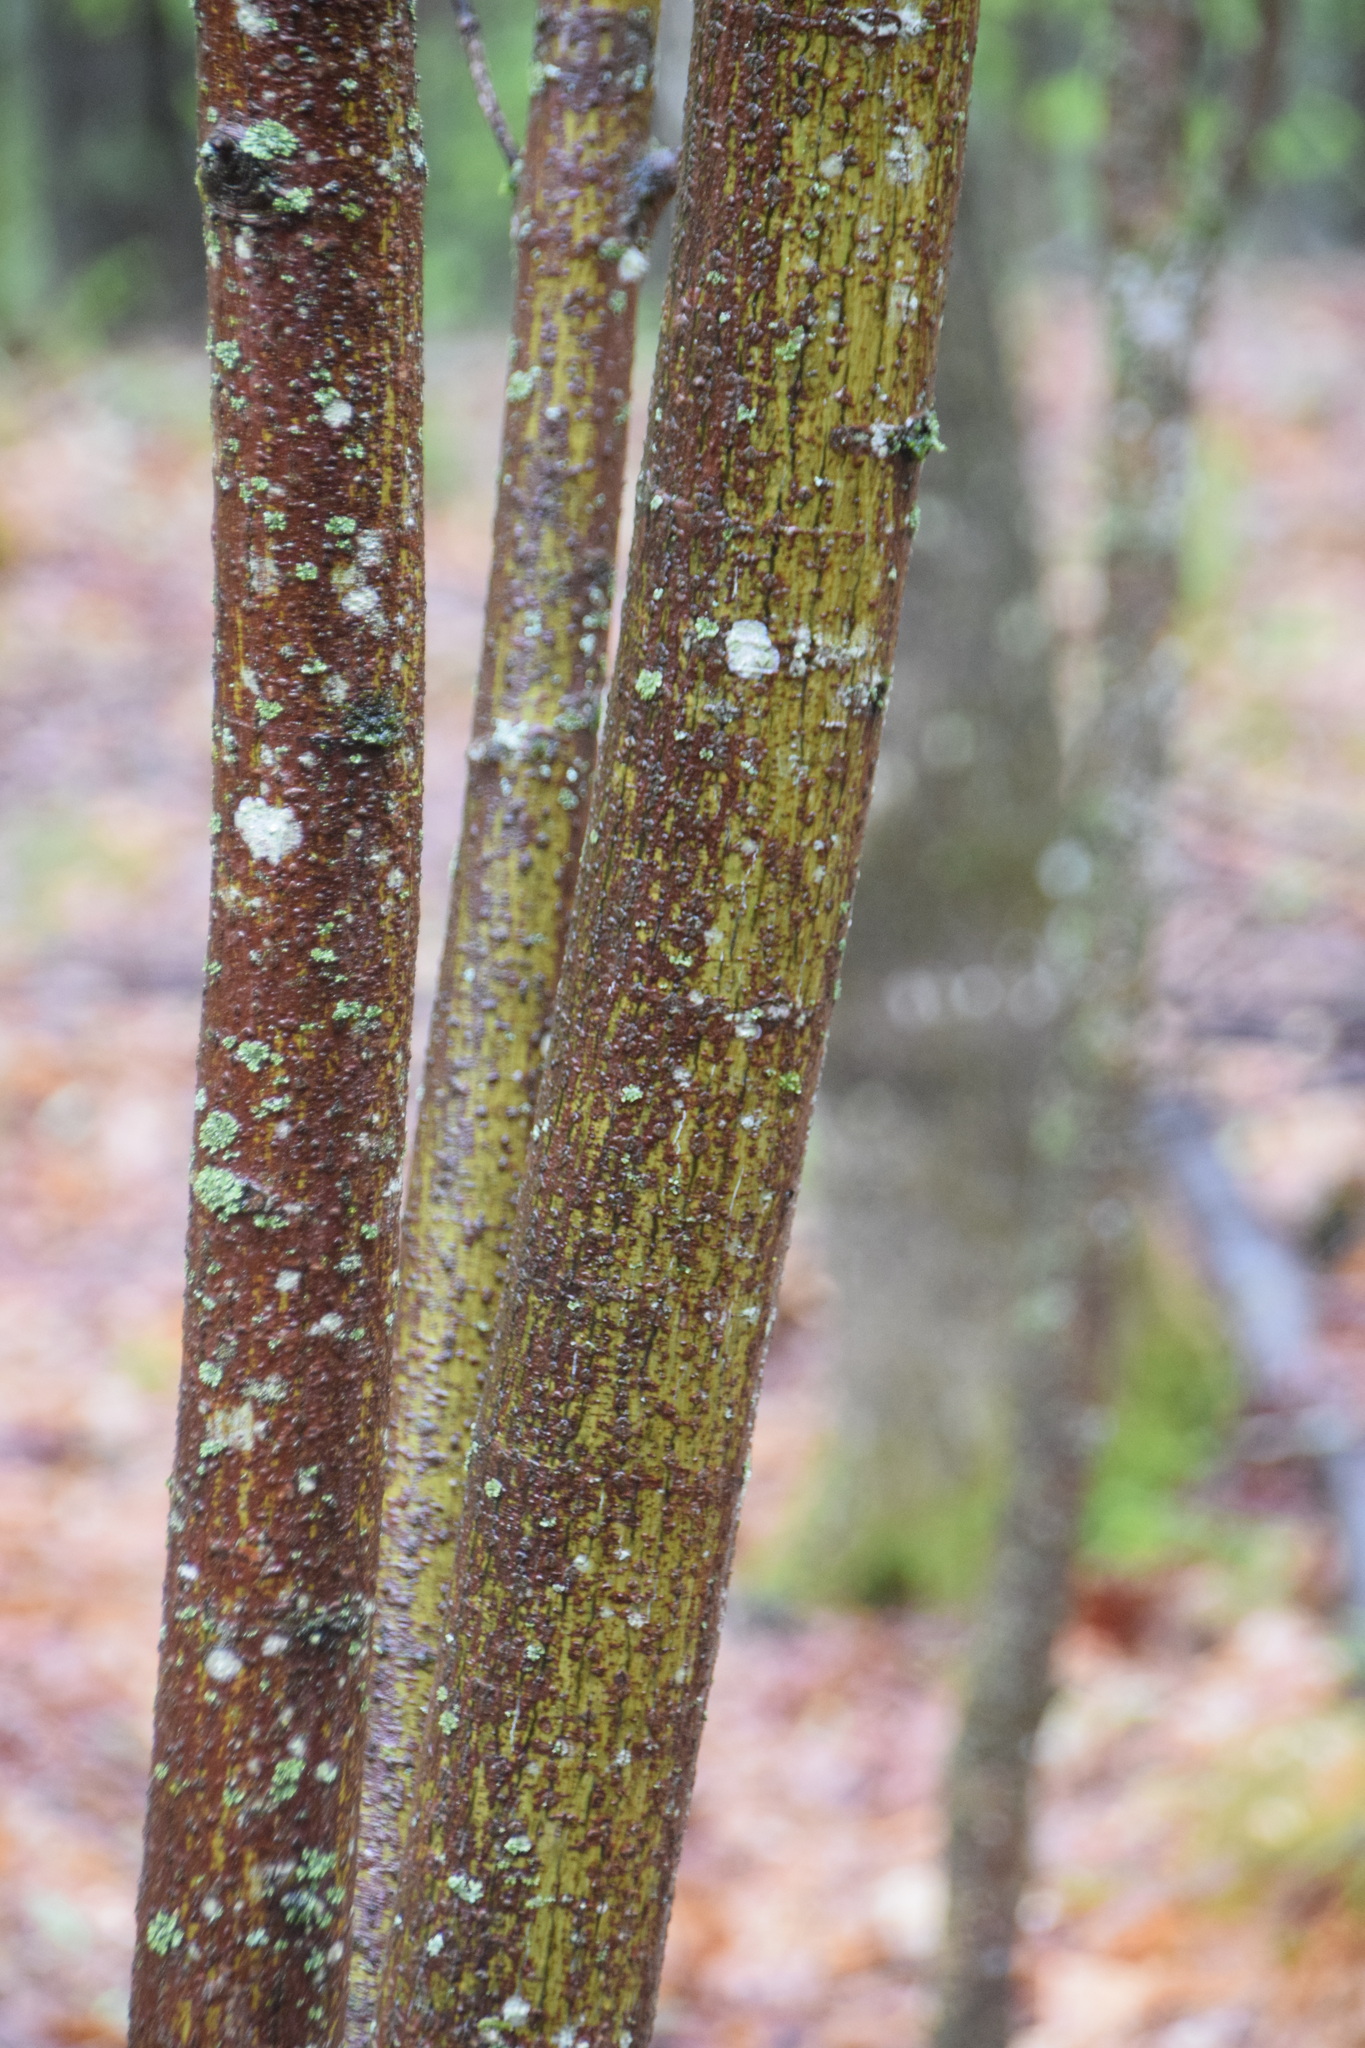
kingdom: Plantae
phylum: Tracheophyta
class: Magnoliopsida
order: Sapindales
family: Sapindaceae
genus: Acer
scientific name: Acer pensylvanicum
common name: Moosewood
